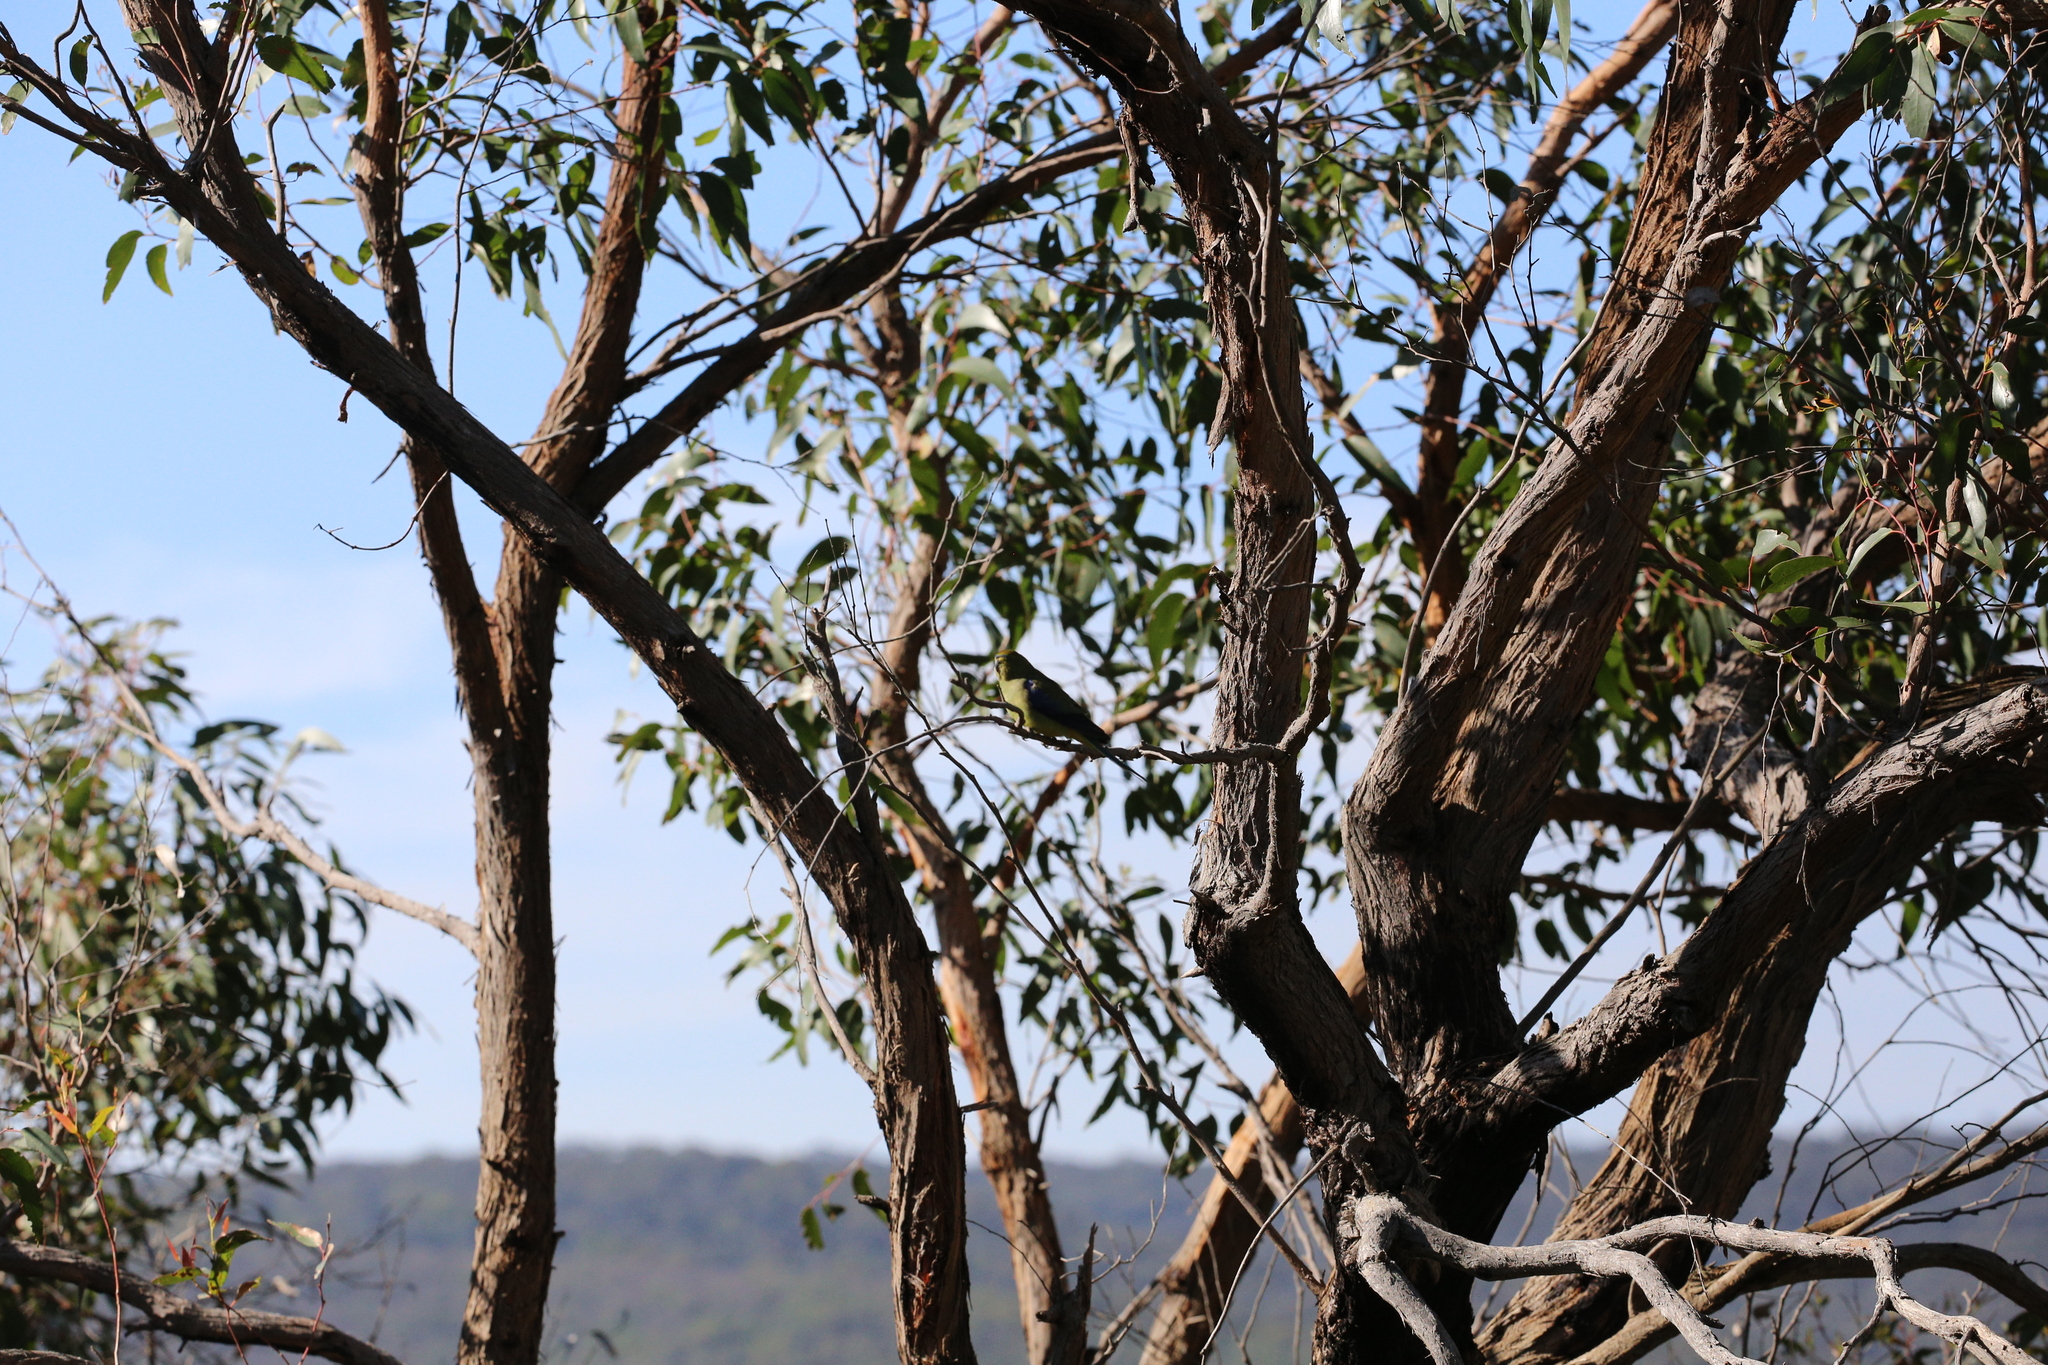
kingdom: Animalia
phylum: Chordata
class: Aves
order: Psittaciformes
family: Psittacidae
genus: Neophema
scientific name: Neophema chrysostoma
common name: Blue-winged parrot
